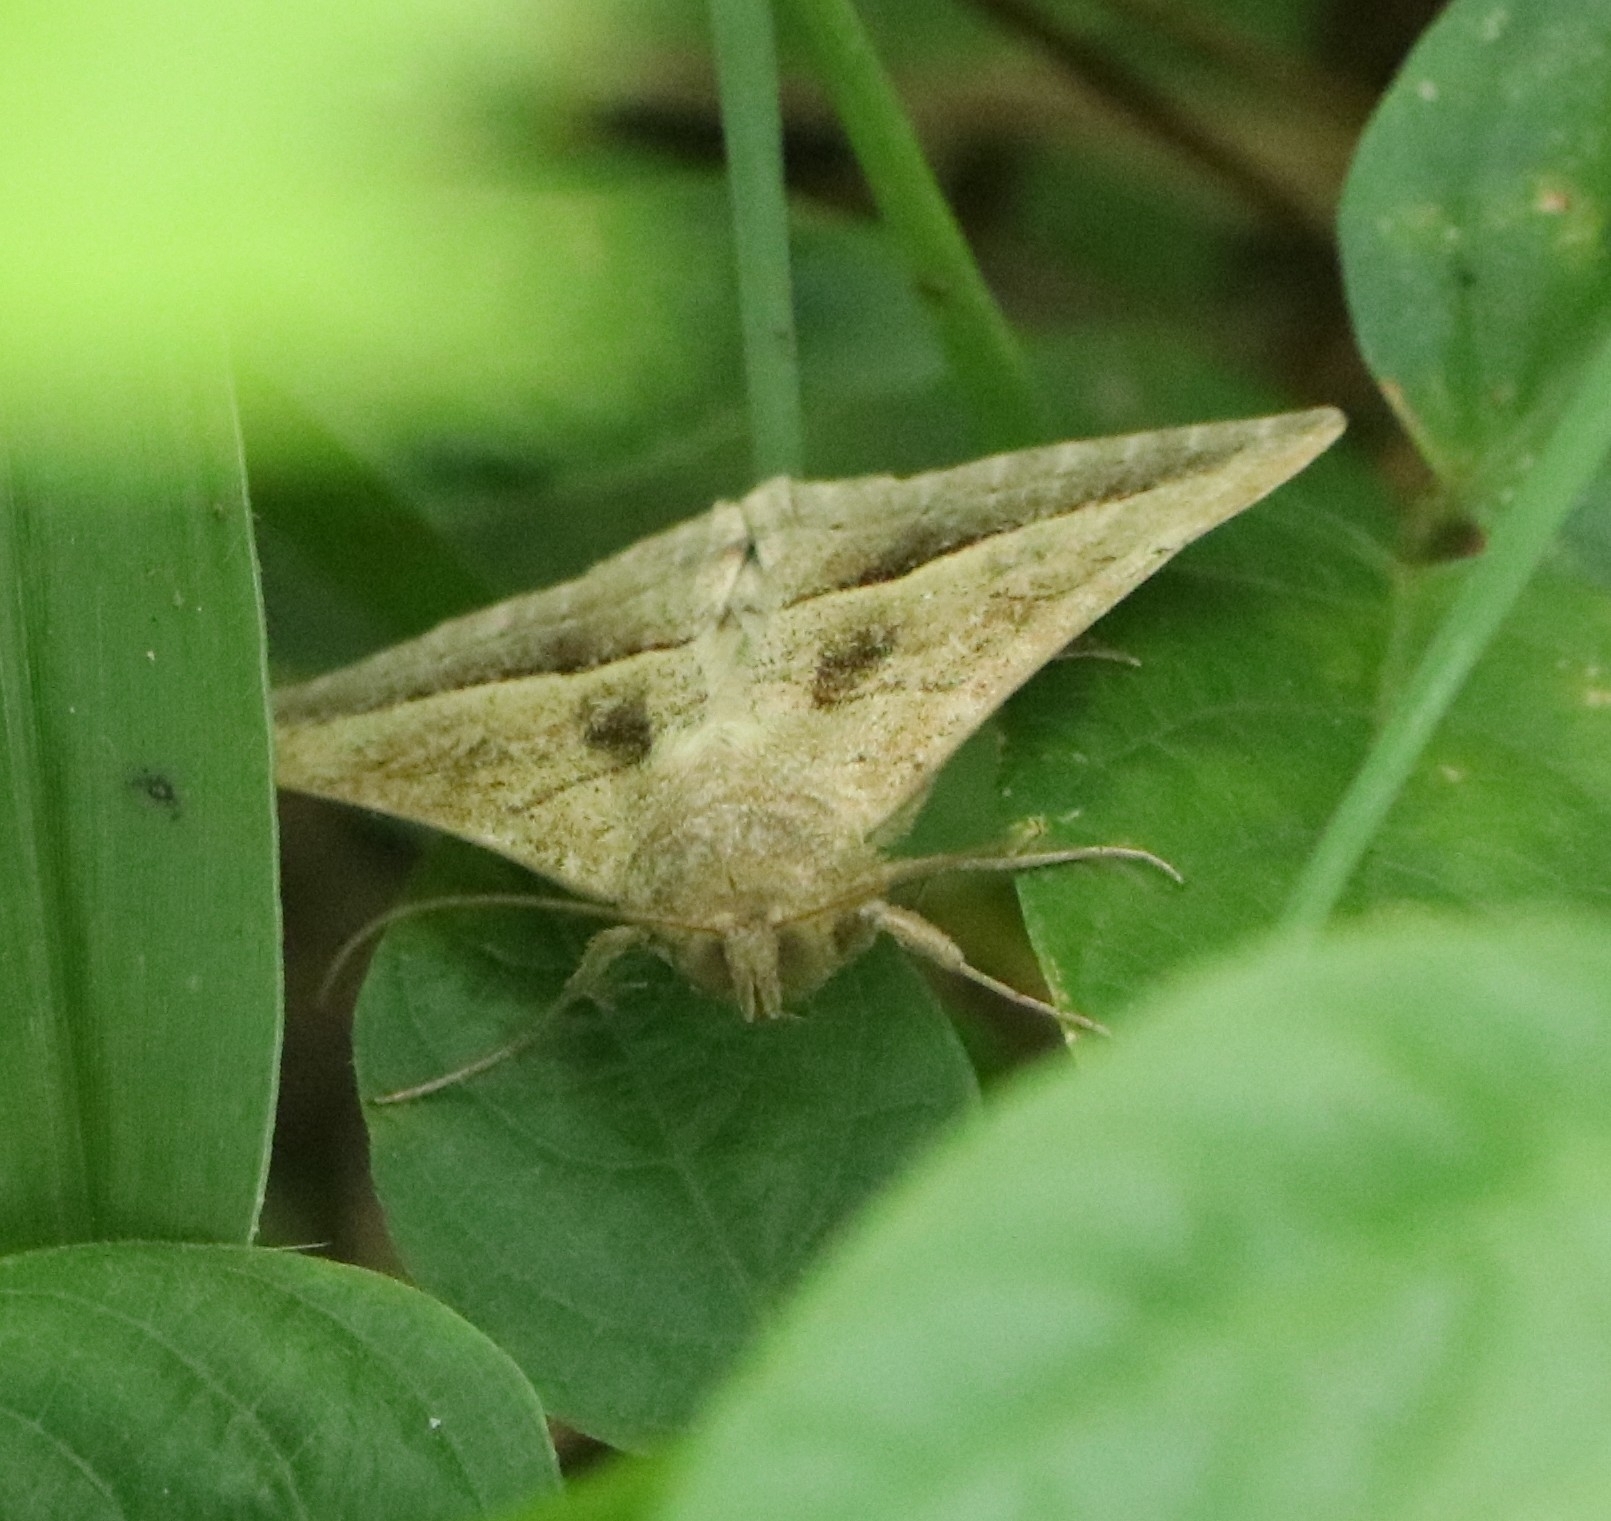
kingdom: Animalia
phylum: Arthropoda
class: Insecta
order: Lepidoptera
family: Erebidae
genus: Mocis
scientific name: Mocis frugalis
